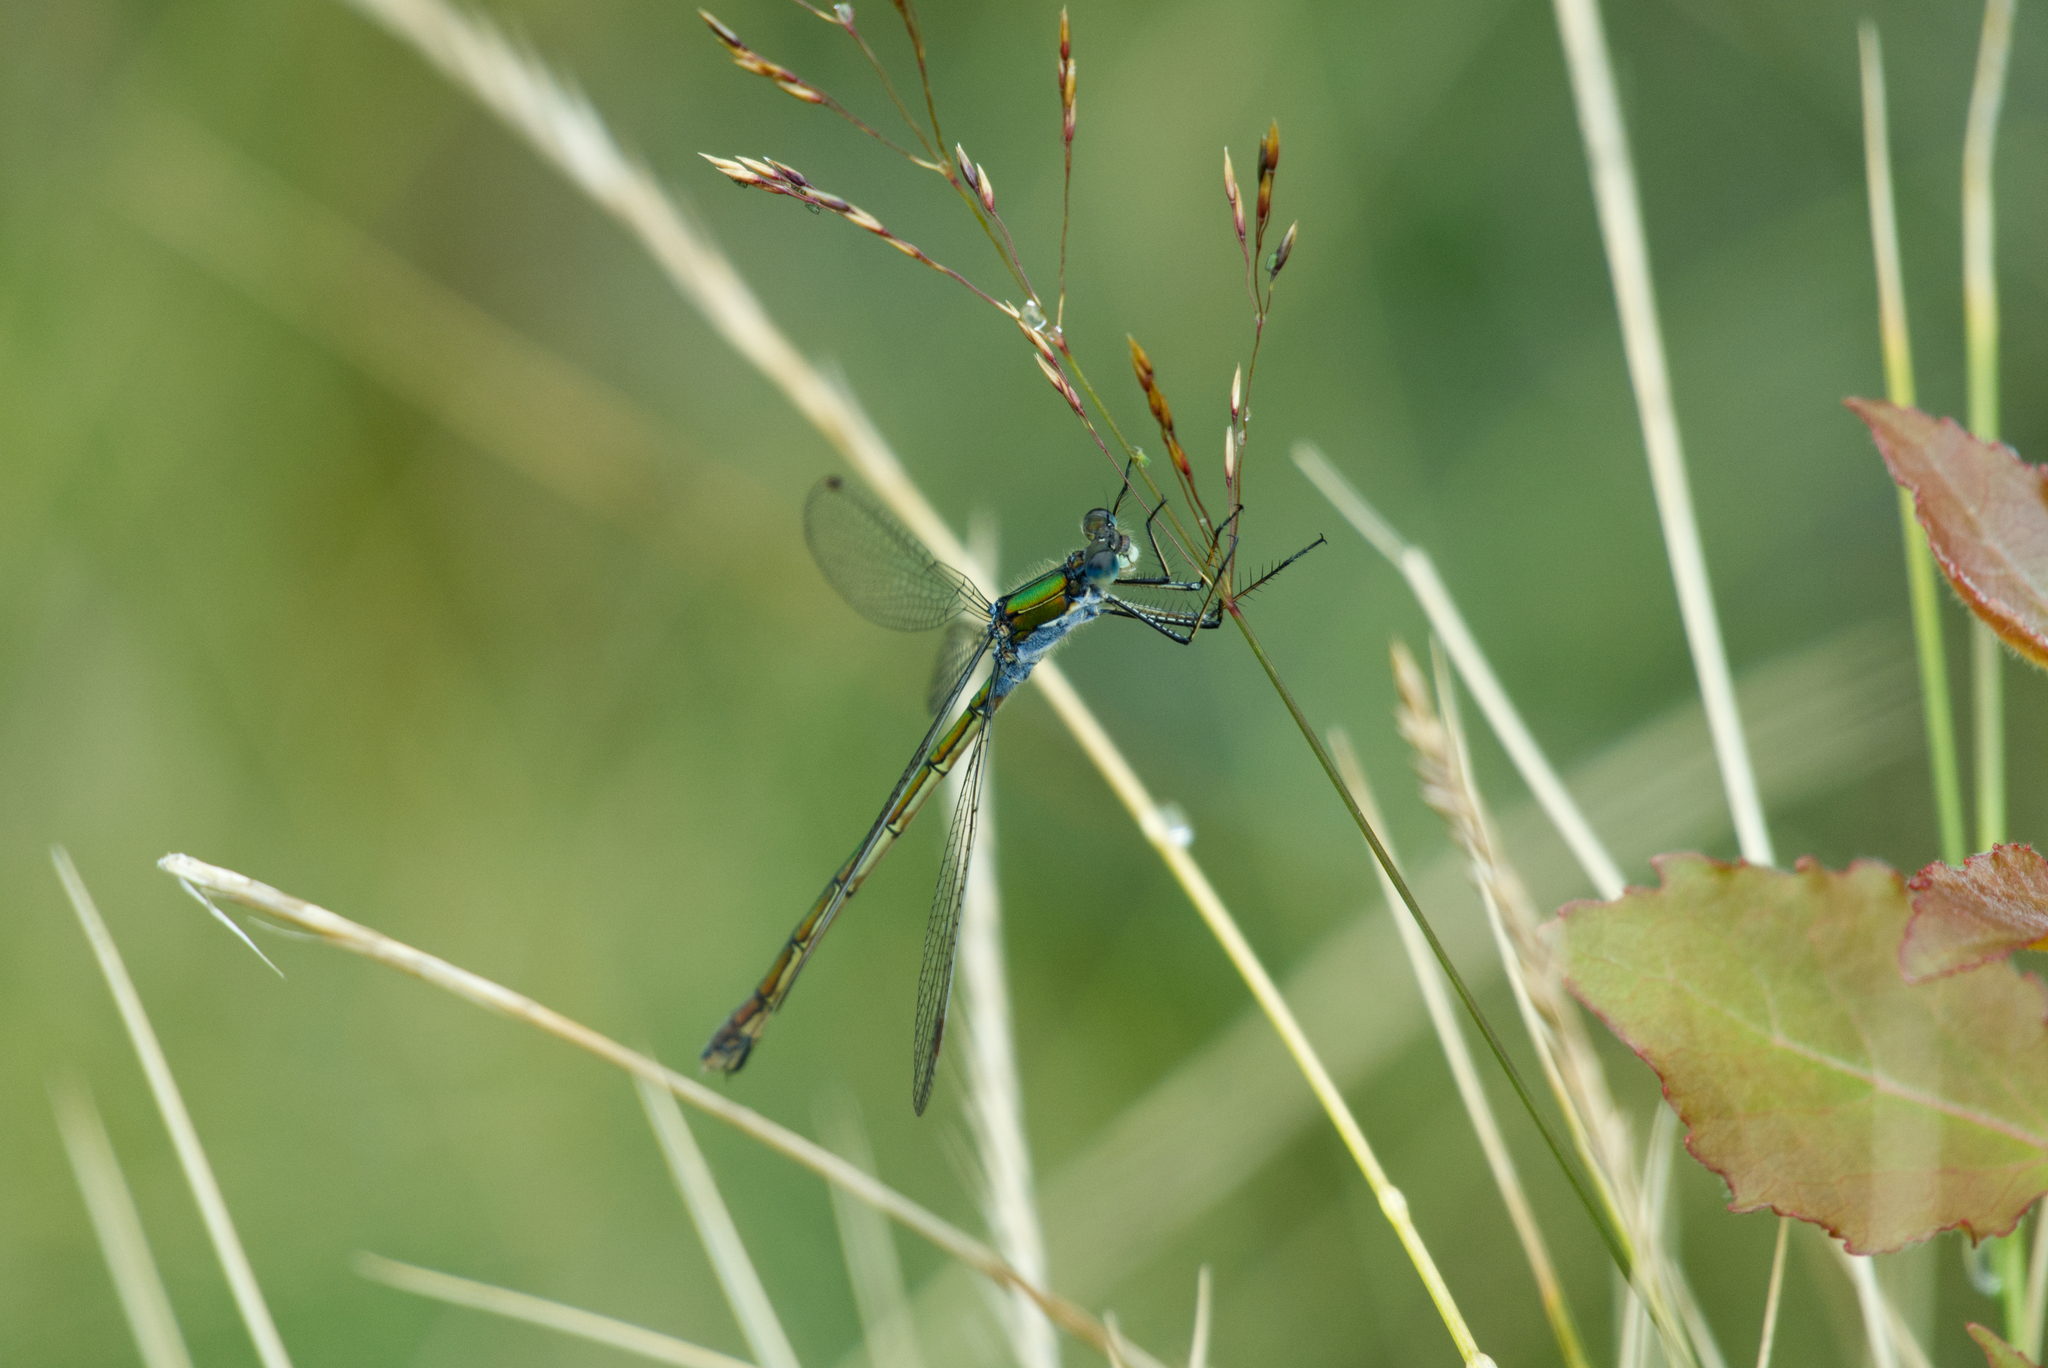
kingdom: Animalia
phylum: Arthropoda
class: Insecta
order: Odonata
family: Lestidae
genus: Lestes
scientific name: Lestes sponsa
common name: Common spreadwing
